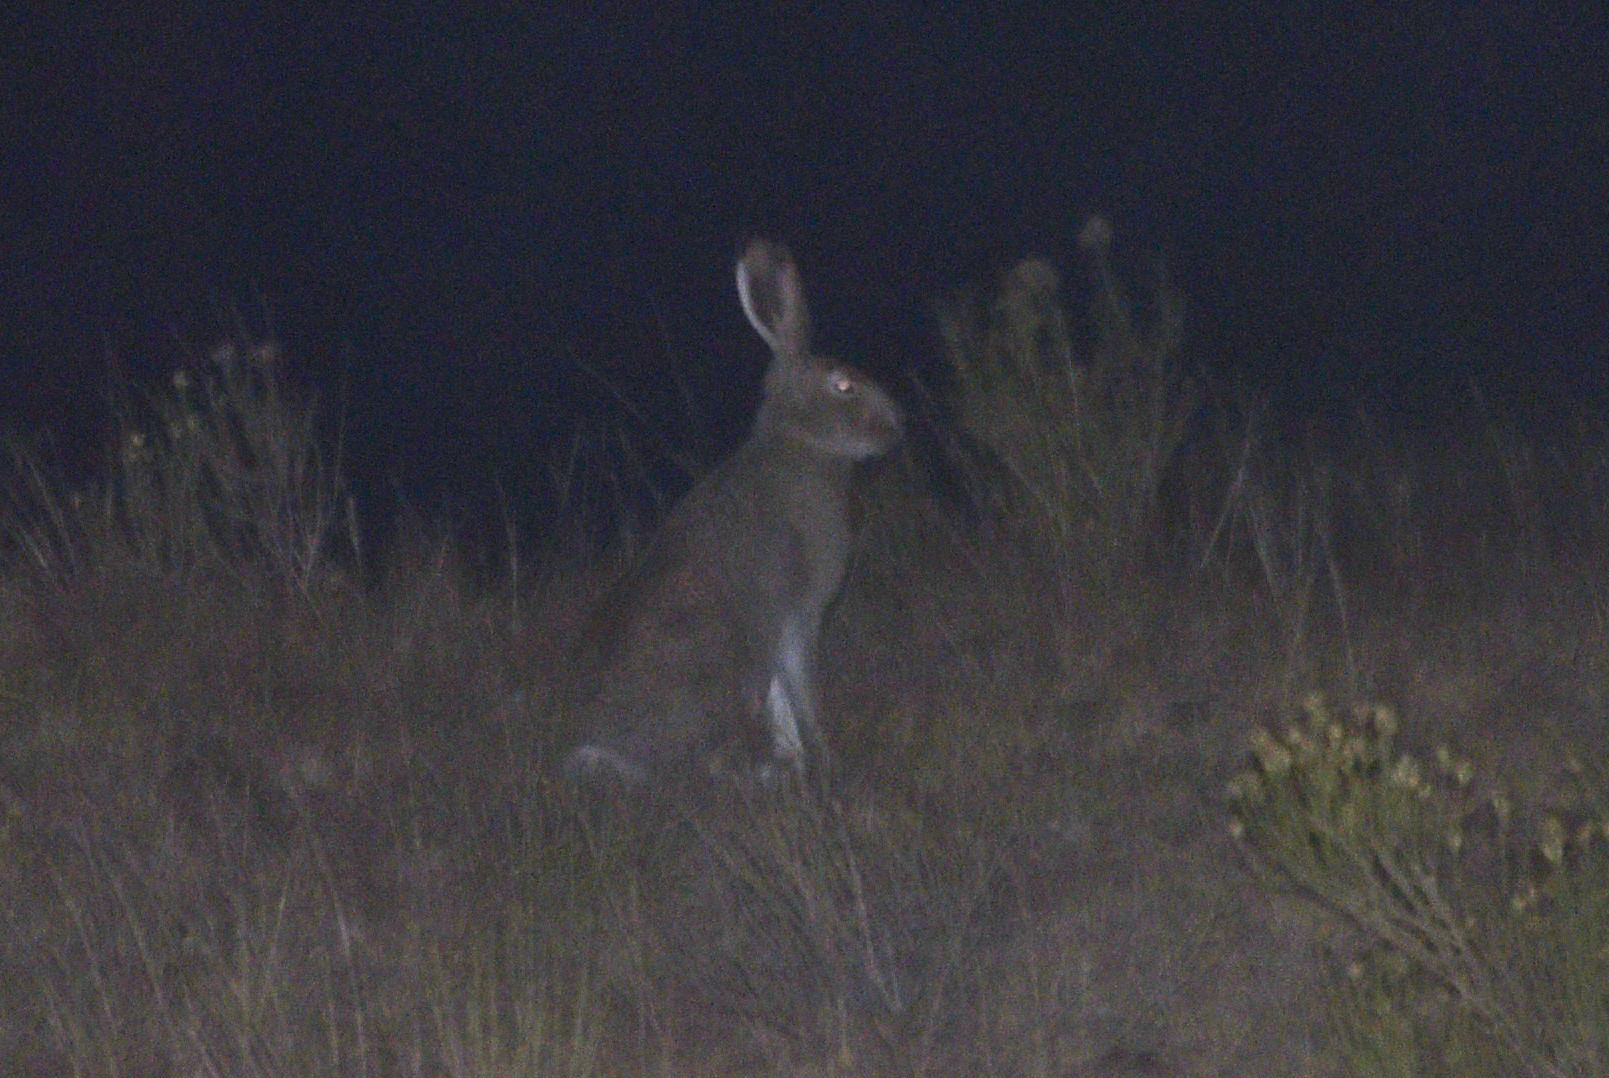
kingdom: Animalia
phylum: Chordata
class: Mammalia
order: Lagomorpha
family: Leporidae
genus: Lepus
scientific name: Lepus townsendii
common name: White-tailed jackrabbit
